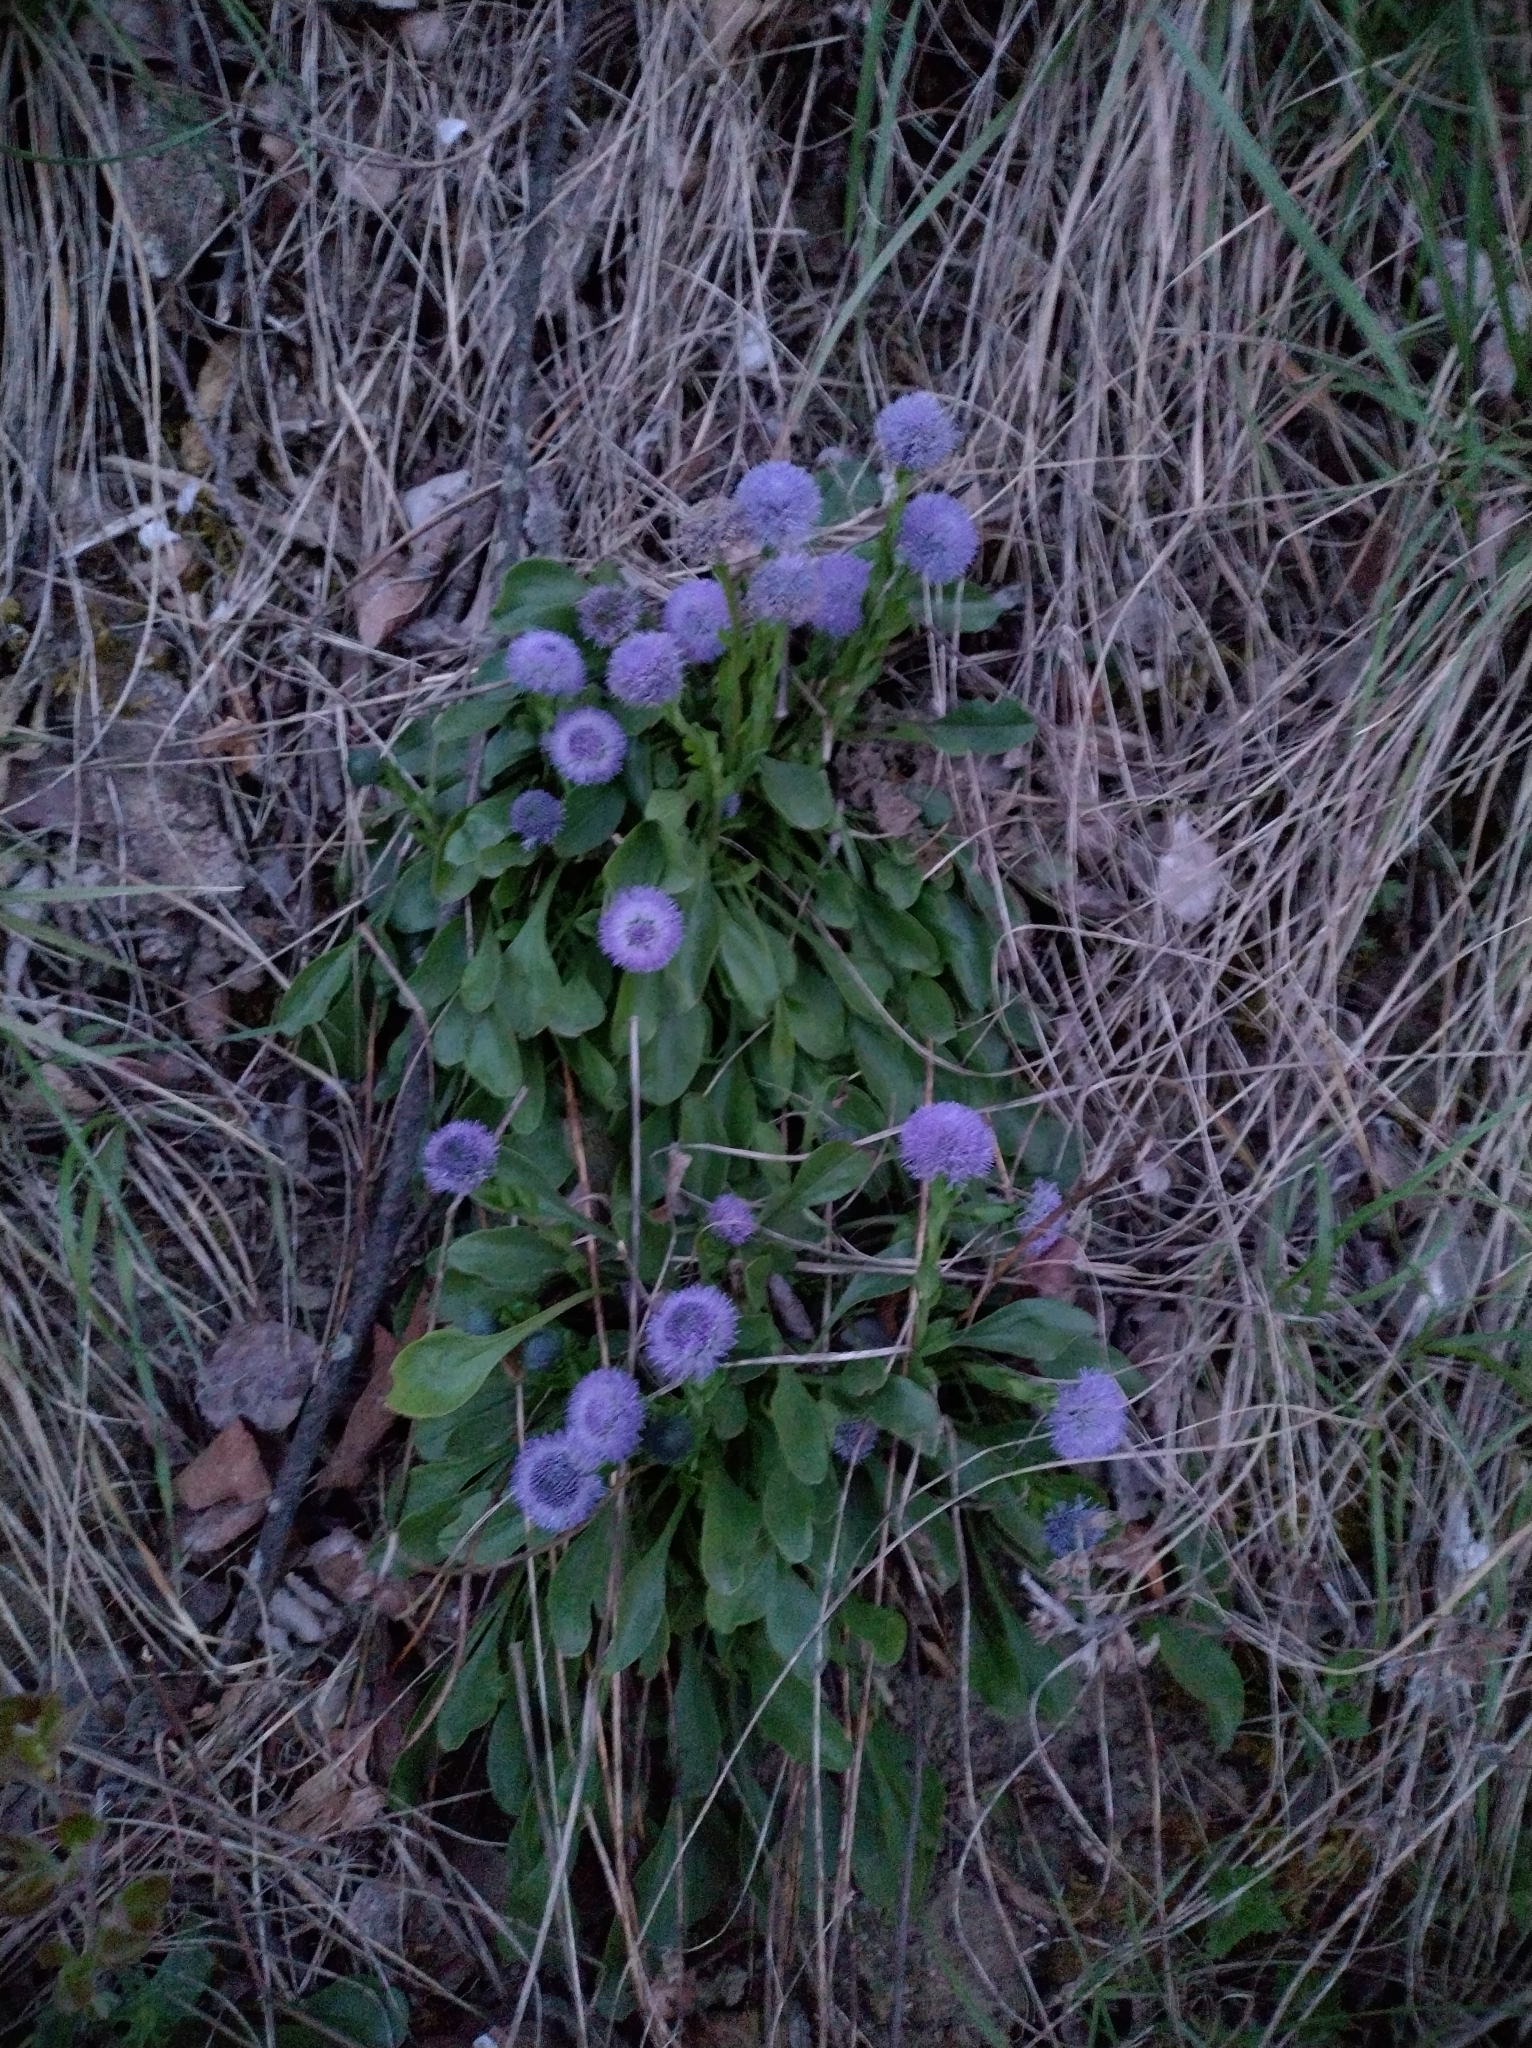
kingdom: Plantae
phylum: Tracheophyta
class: Magnoliopsida
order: Lamiales
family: Plantaginaceae
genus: Globularia
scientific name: Globularia bisnagarica
